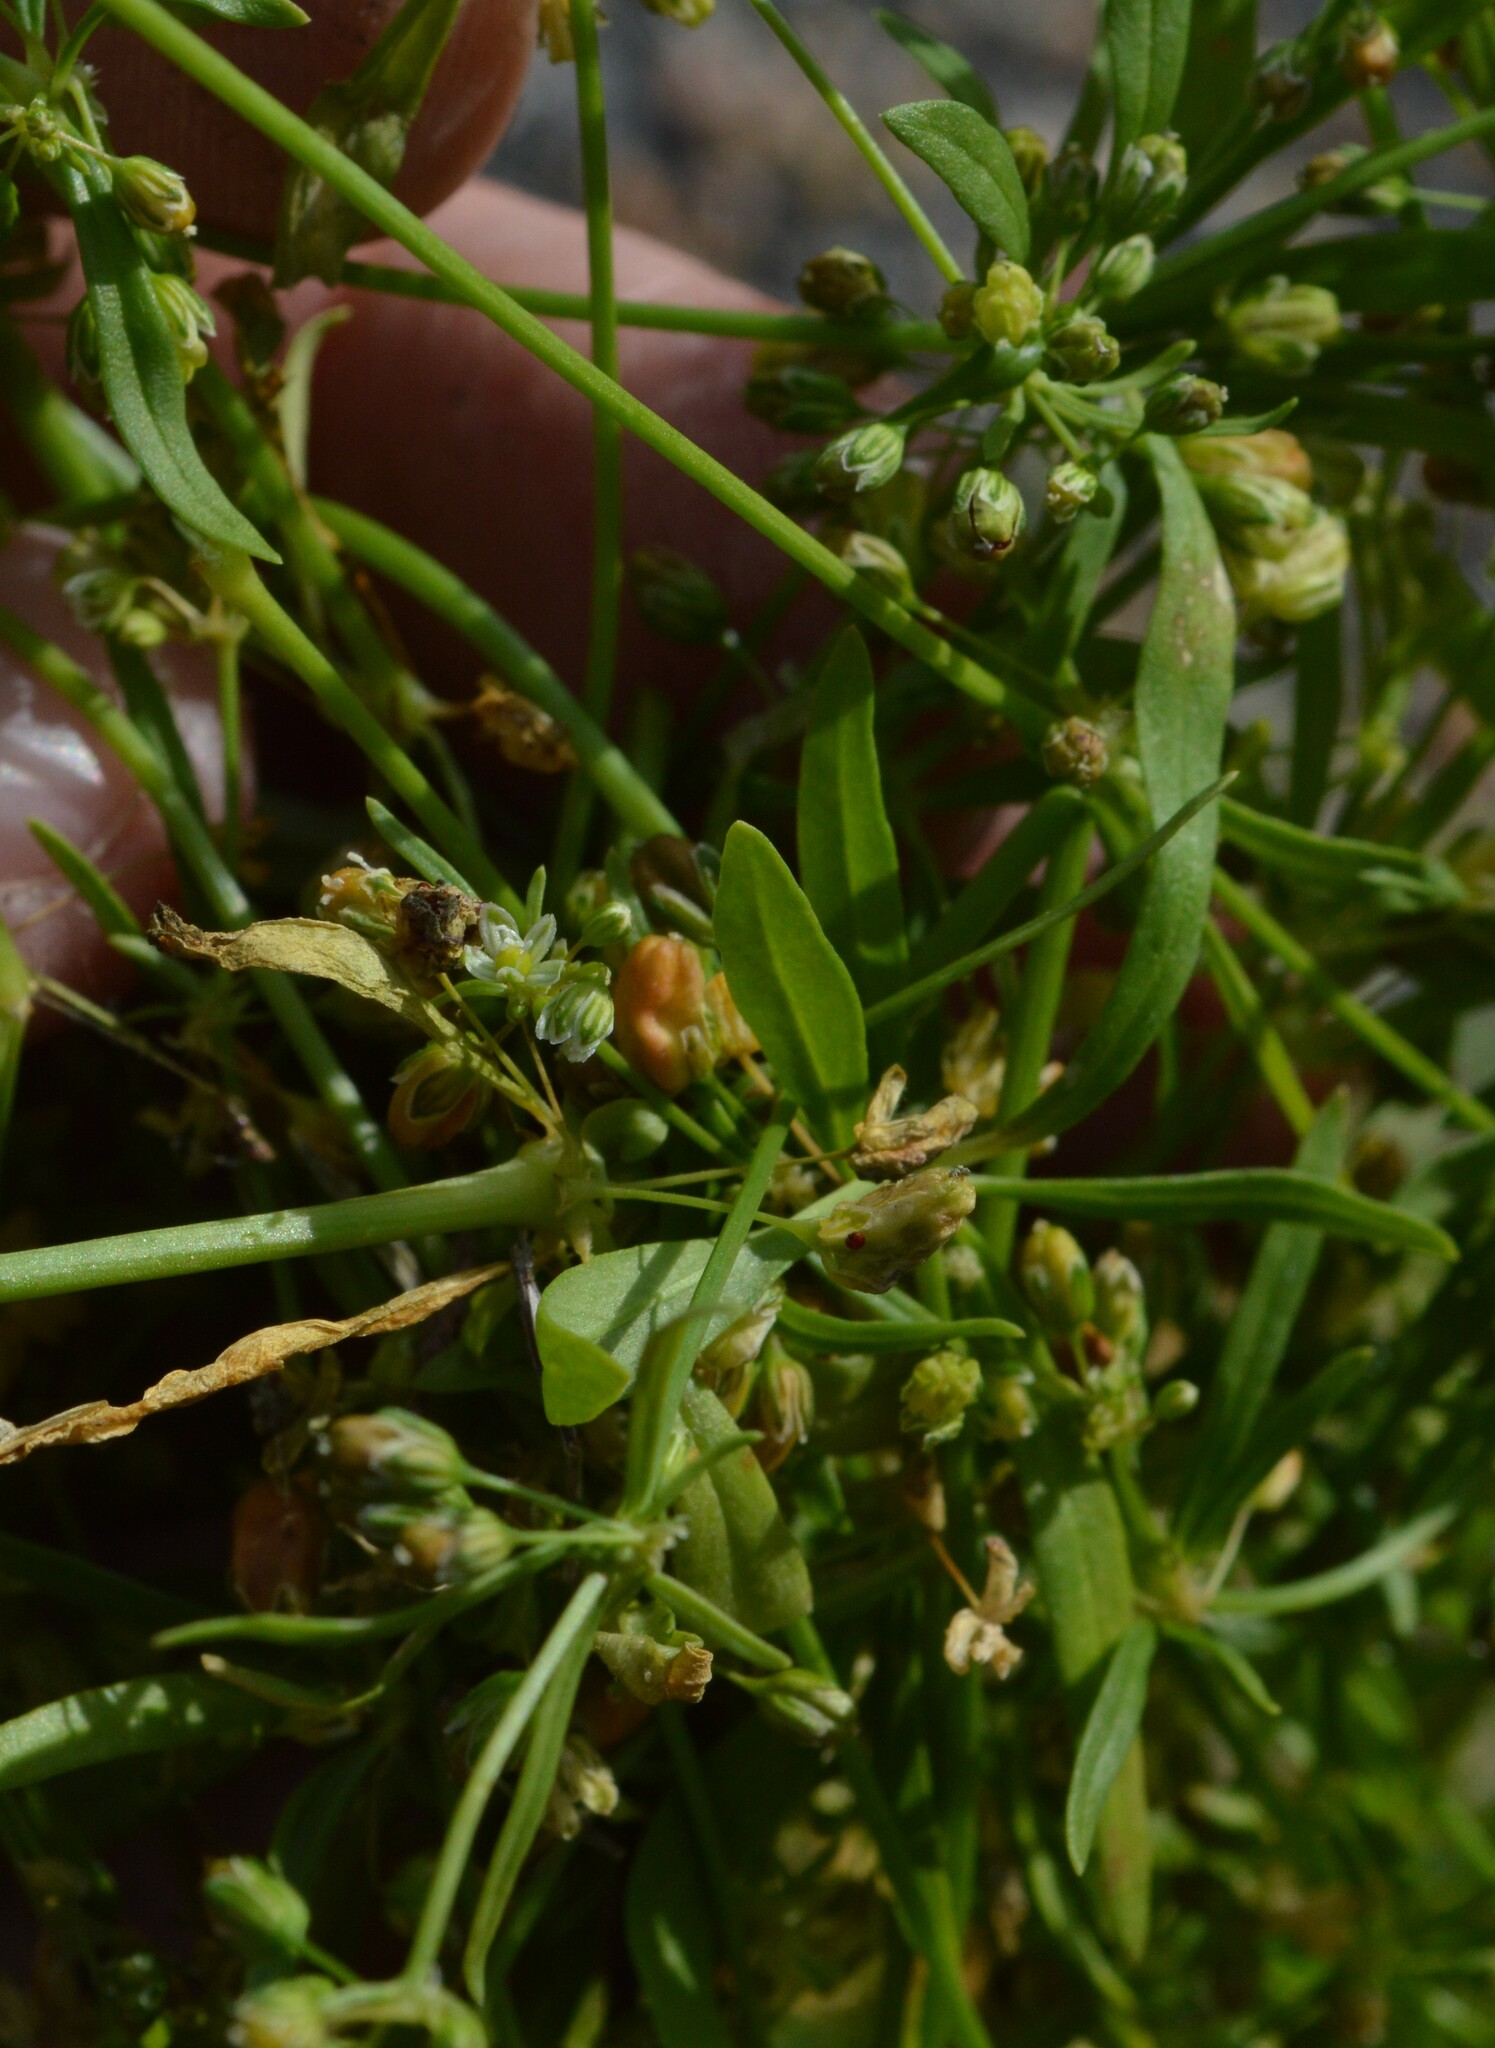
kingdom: Plantae
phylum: Tracheophyta
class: Magnoliopsida
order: Caryophyllales
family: Molluginaceae
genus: Mollugo
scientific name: Mollugo verticillata
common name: Green carpetweed
